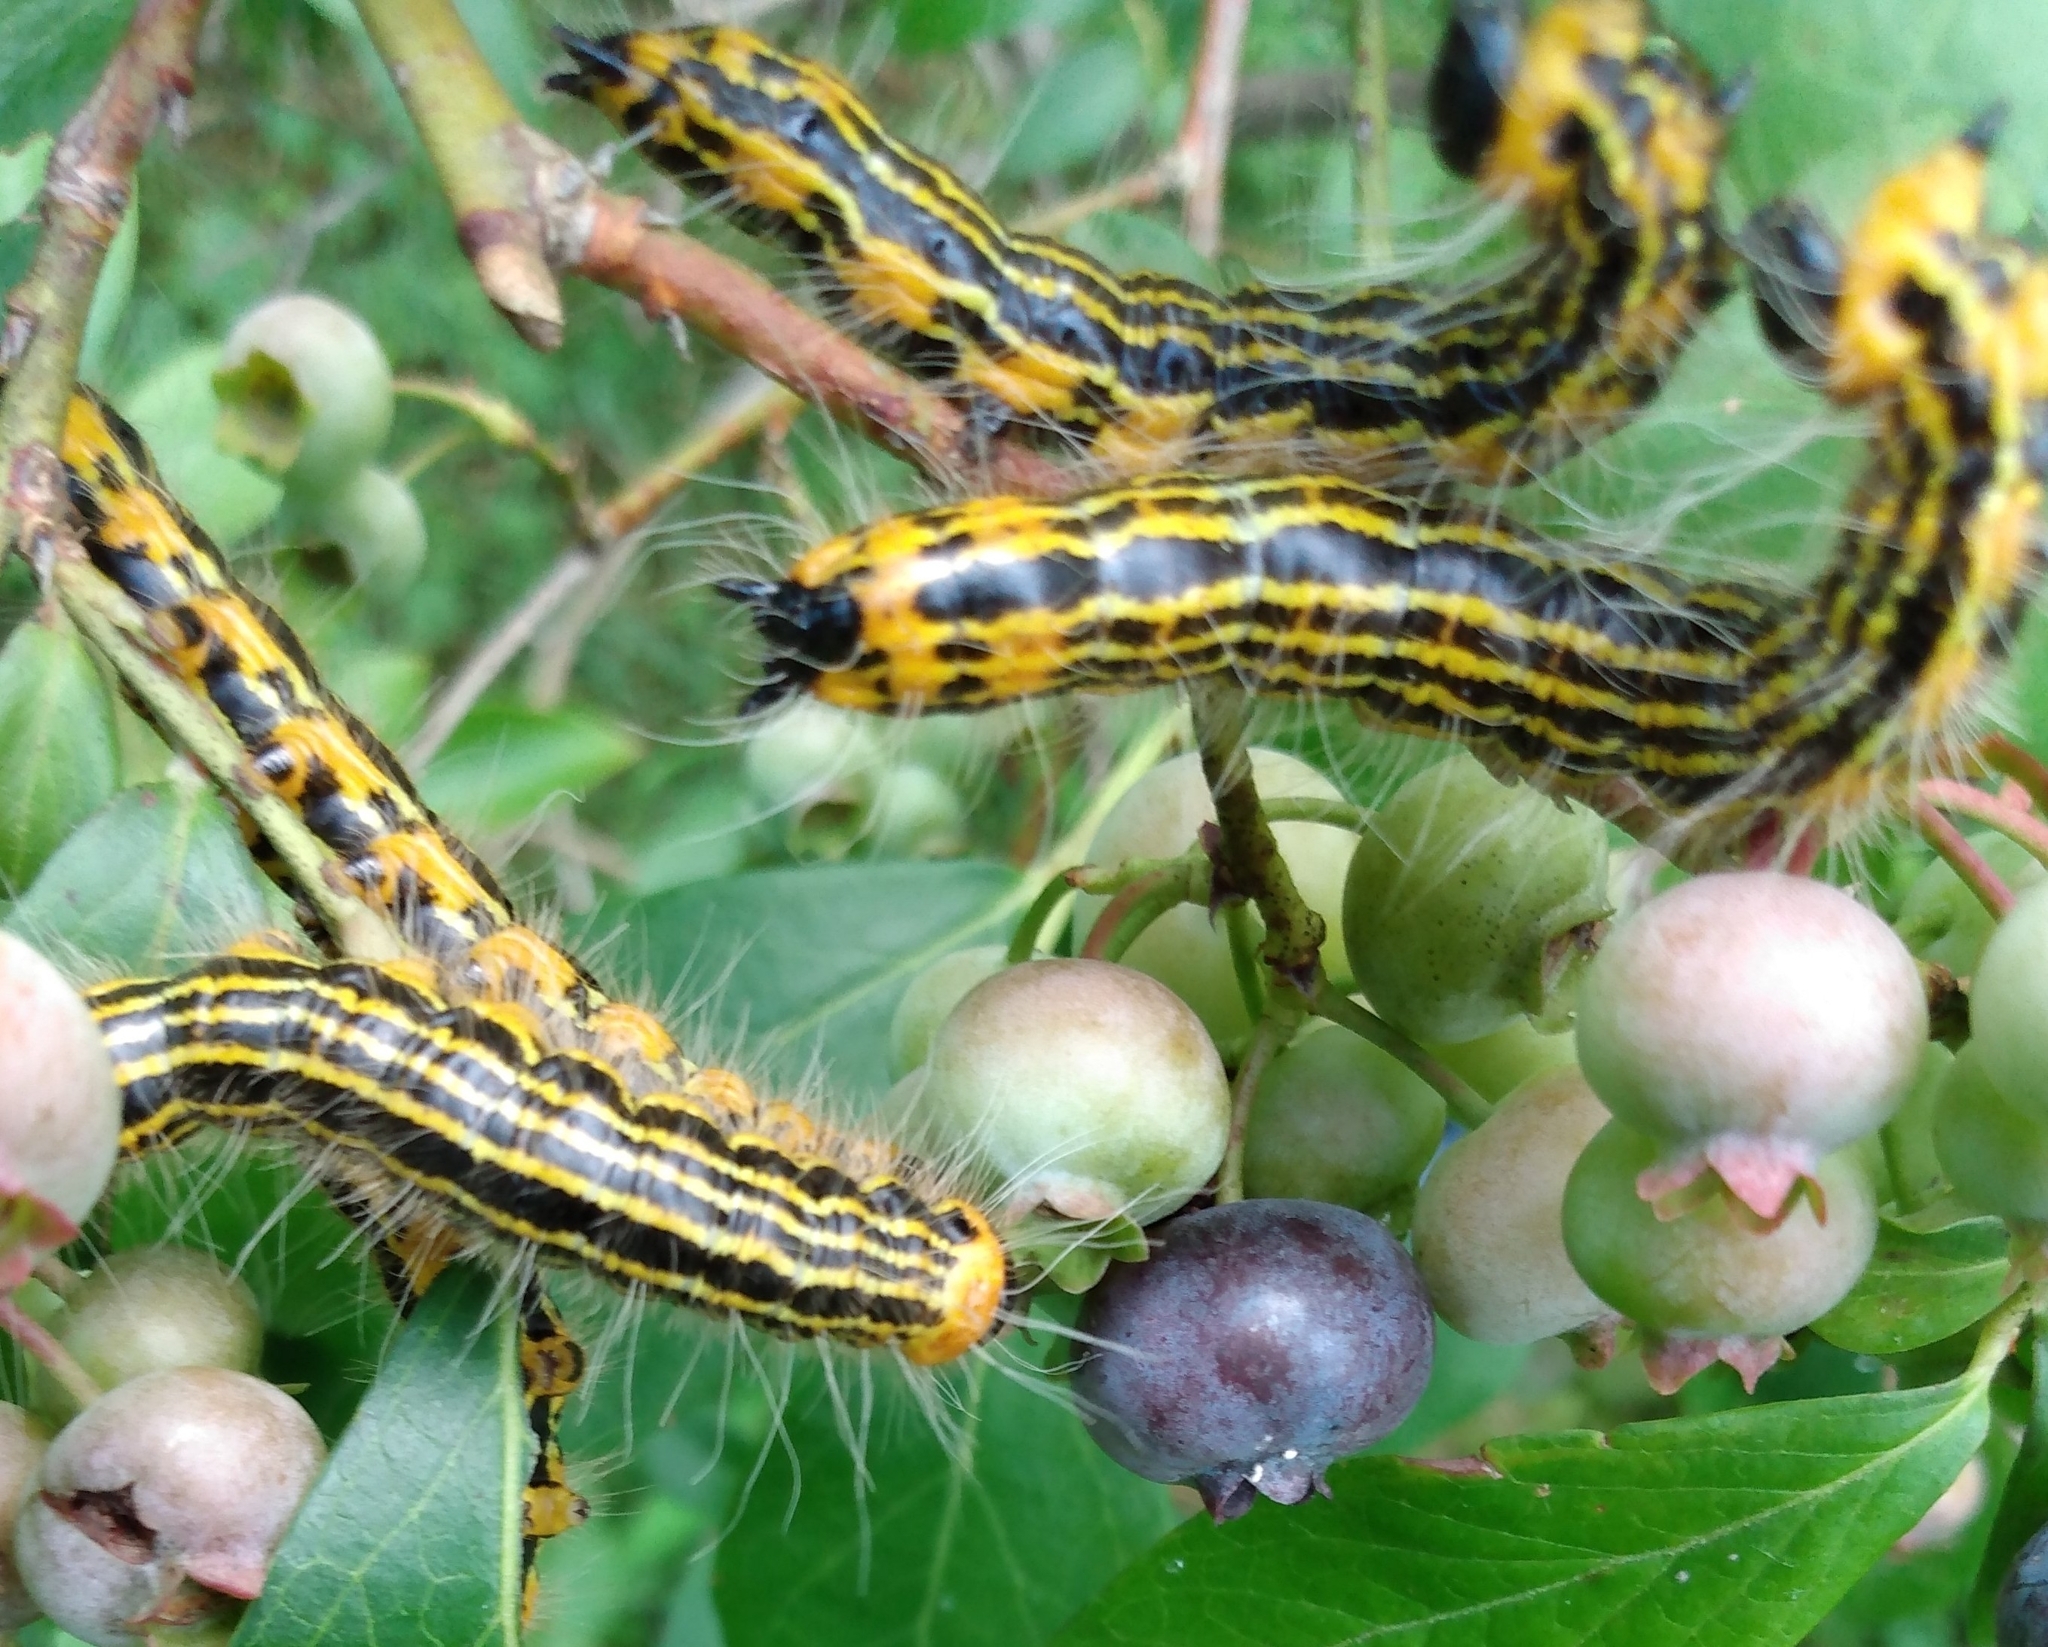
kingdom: Animalia
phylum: Arthropoda
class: Insecta
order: Lepidoptera
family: Notodontidae
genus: Datana
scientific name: Datana drexelii
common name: Drexel's datana
